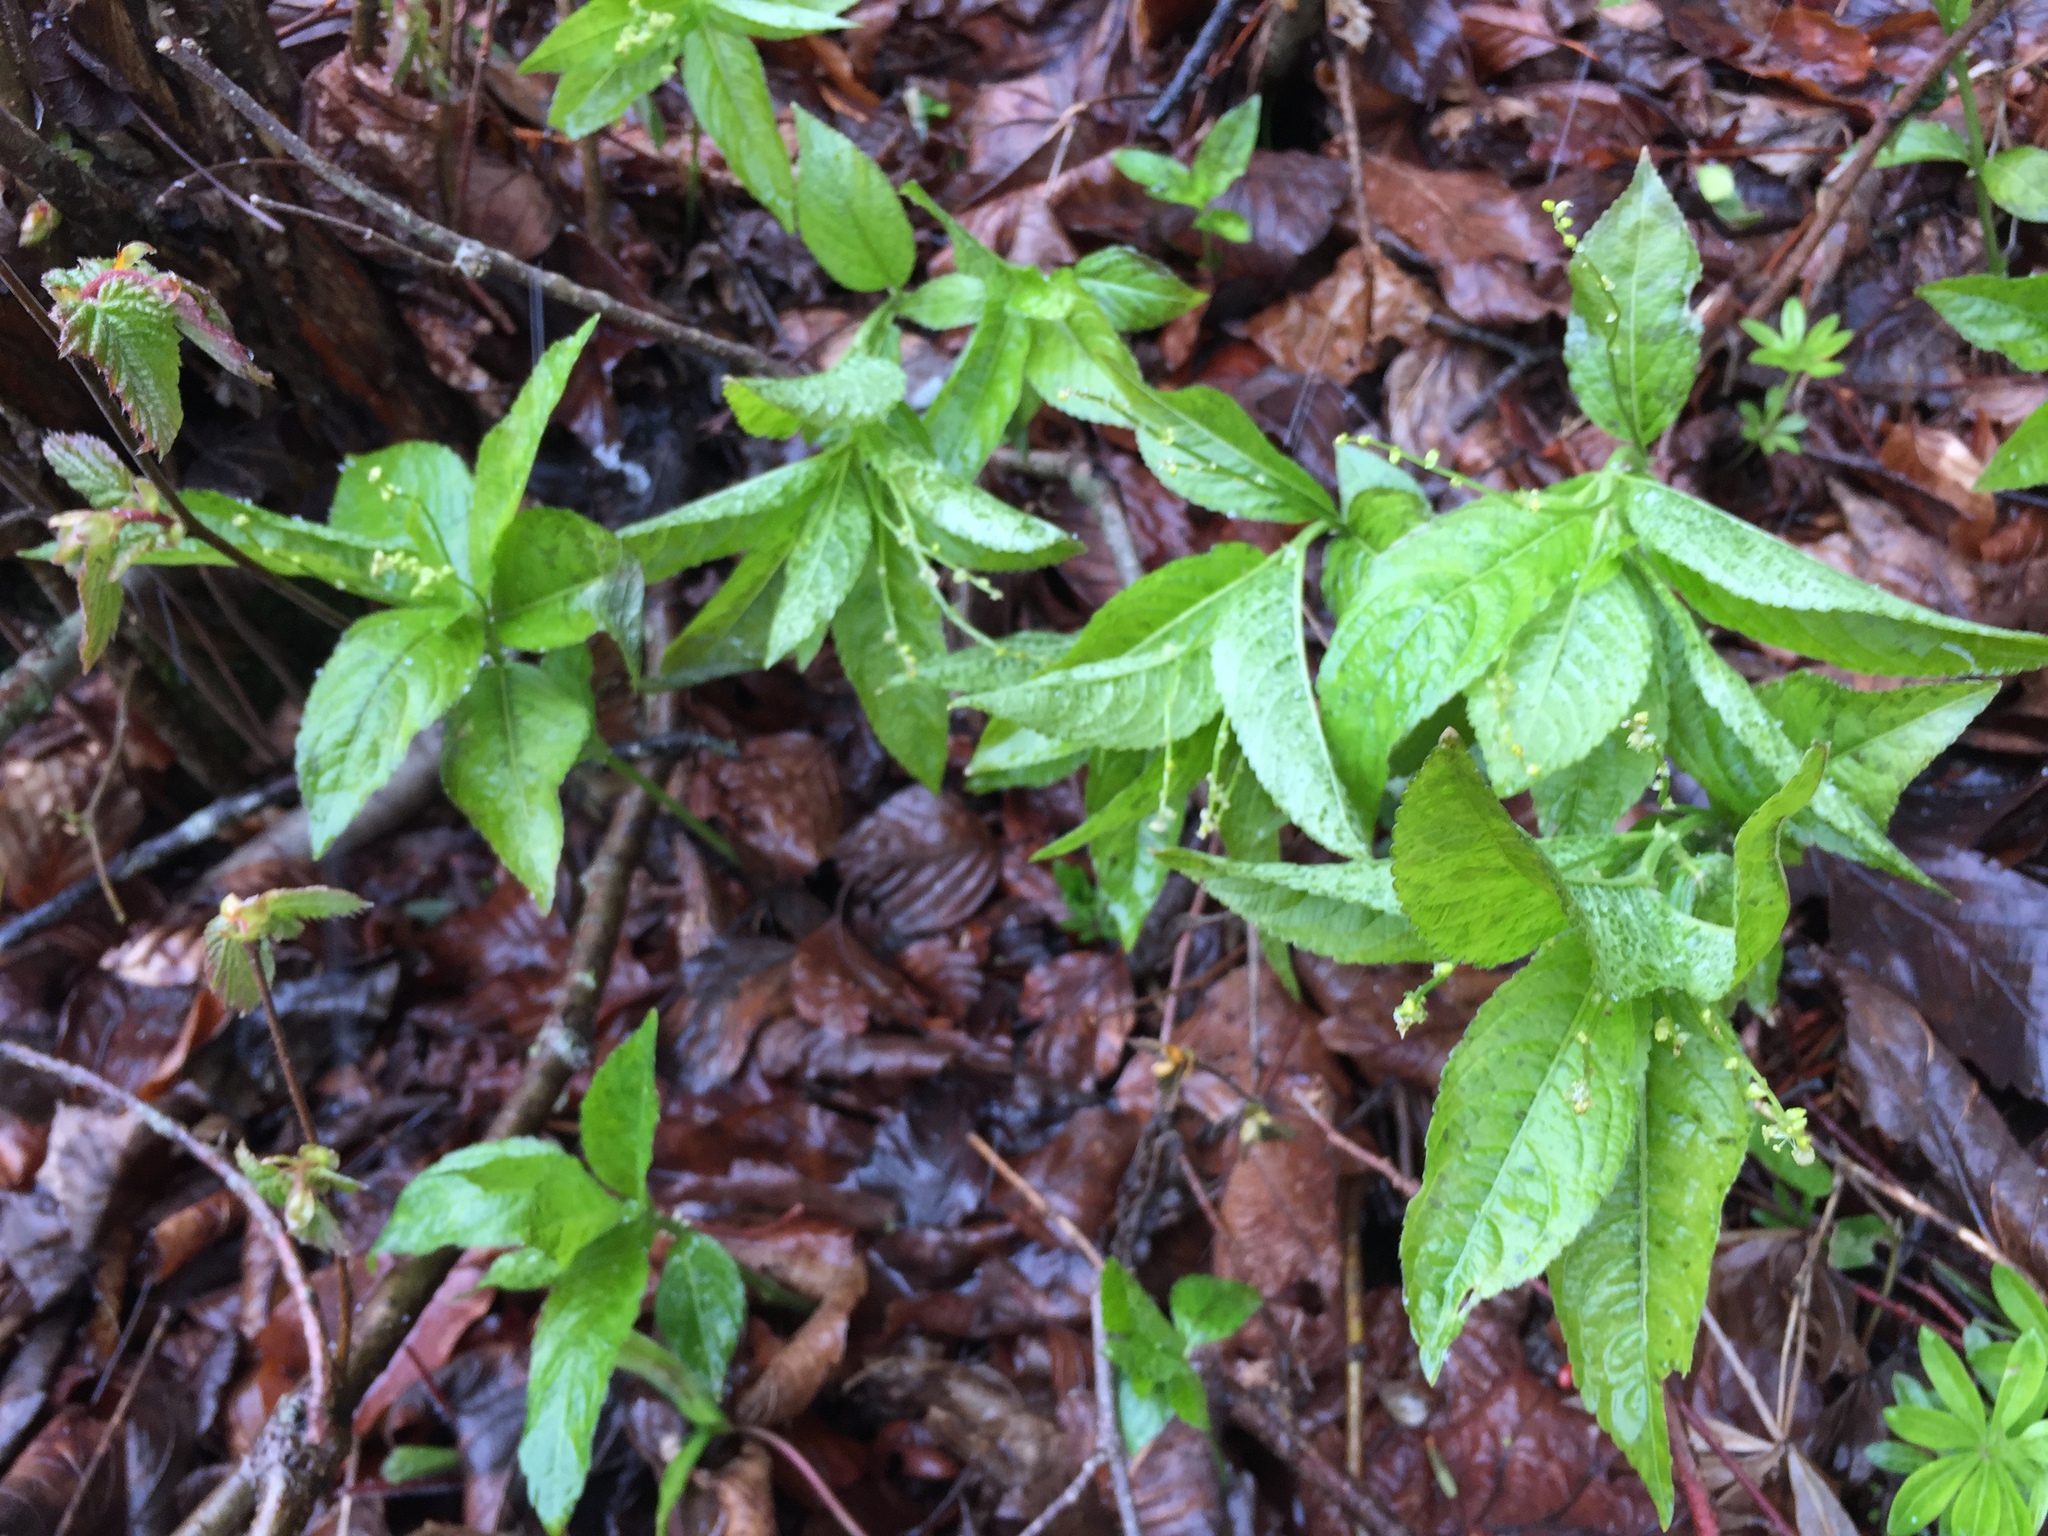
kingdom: Plantae
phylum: Tracheophyta
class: Magnoliopsida
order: Malpighiales
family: Euphorbiaceae
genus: Mercurialis
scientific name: Mercurialis perennis
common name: Dog mercury
